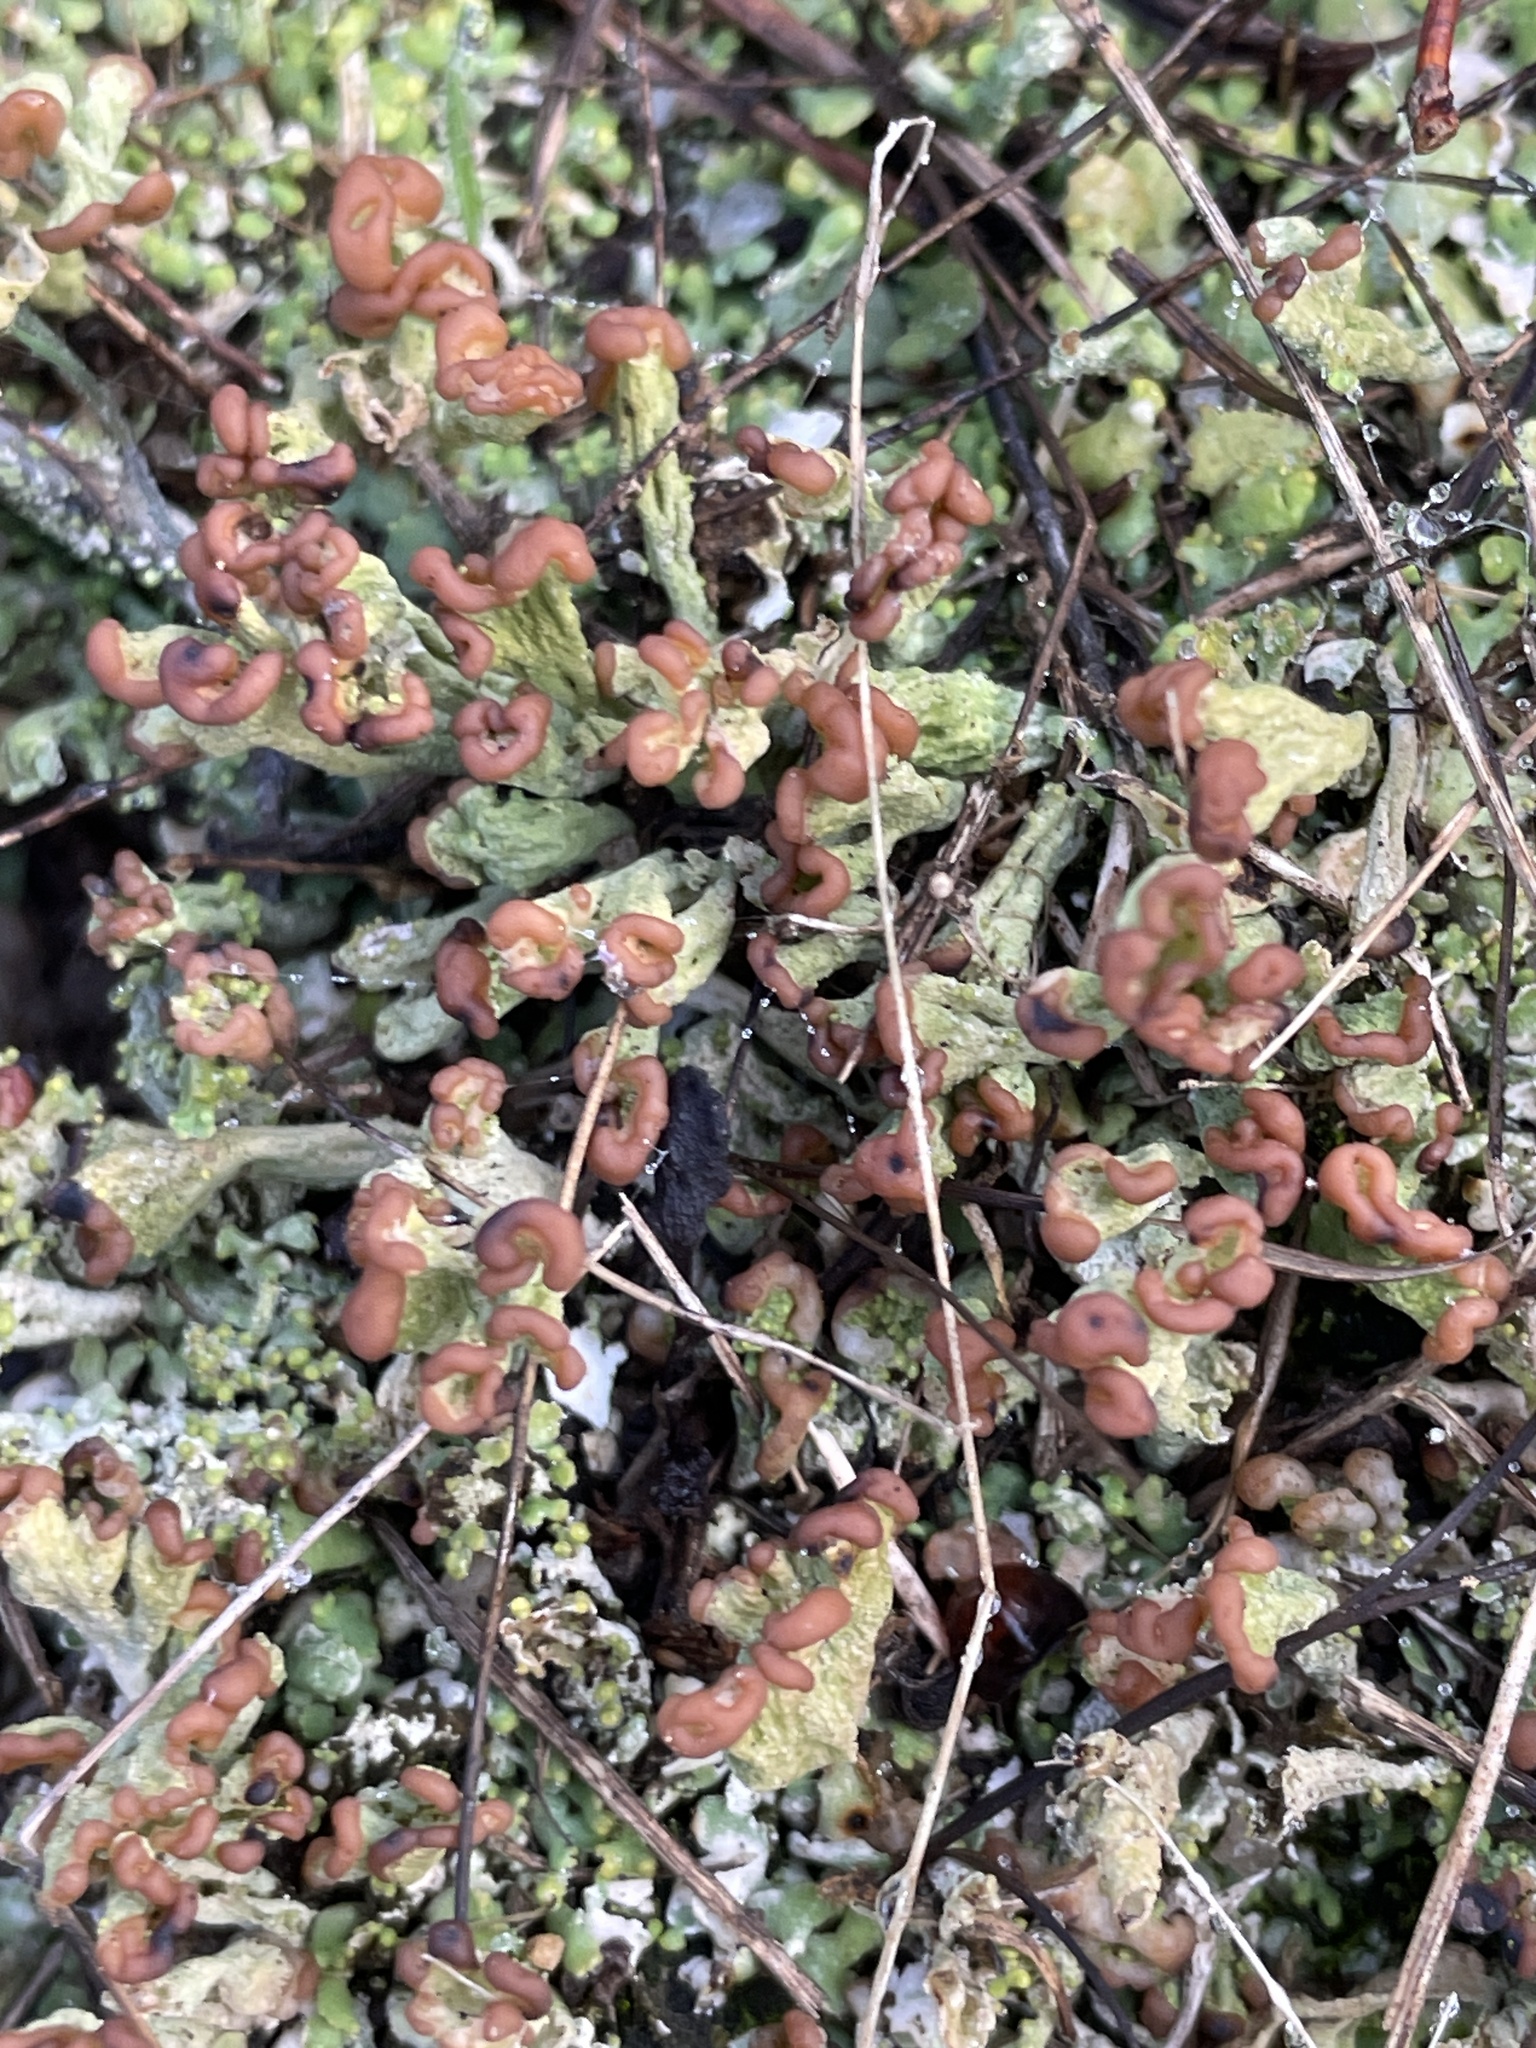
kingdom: Fungi
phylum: Ascomycota
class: Lecanoromycetes
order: Lecanorales
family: Cladoniaceae
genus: Cladonia
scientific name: Cladonia peziziformis
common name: Cup lichen
